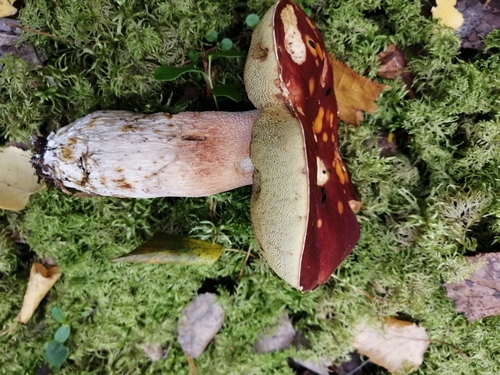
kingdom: Fungi
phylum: Basidiomycota
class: Agaricomycetes
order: Boletales
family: Boletaceae
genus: Boletus
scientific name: Boletus pinophilus
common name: Pine bolete
